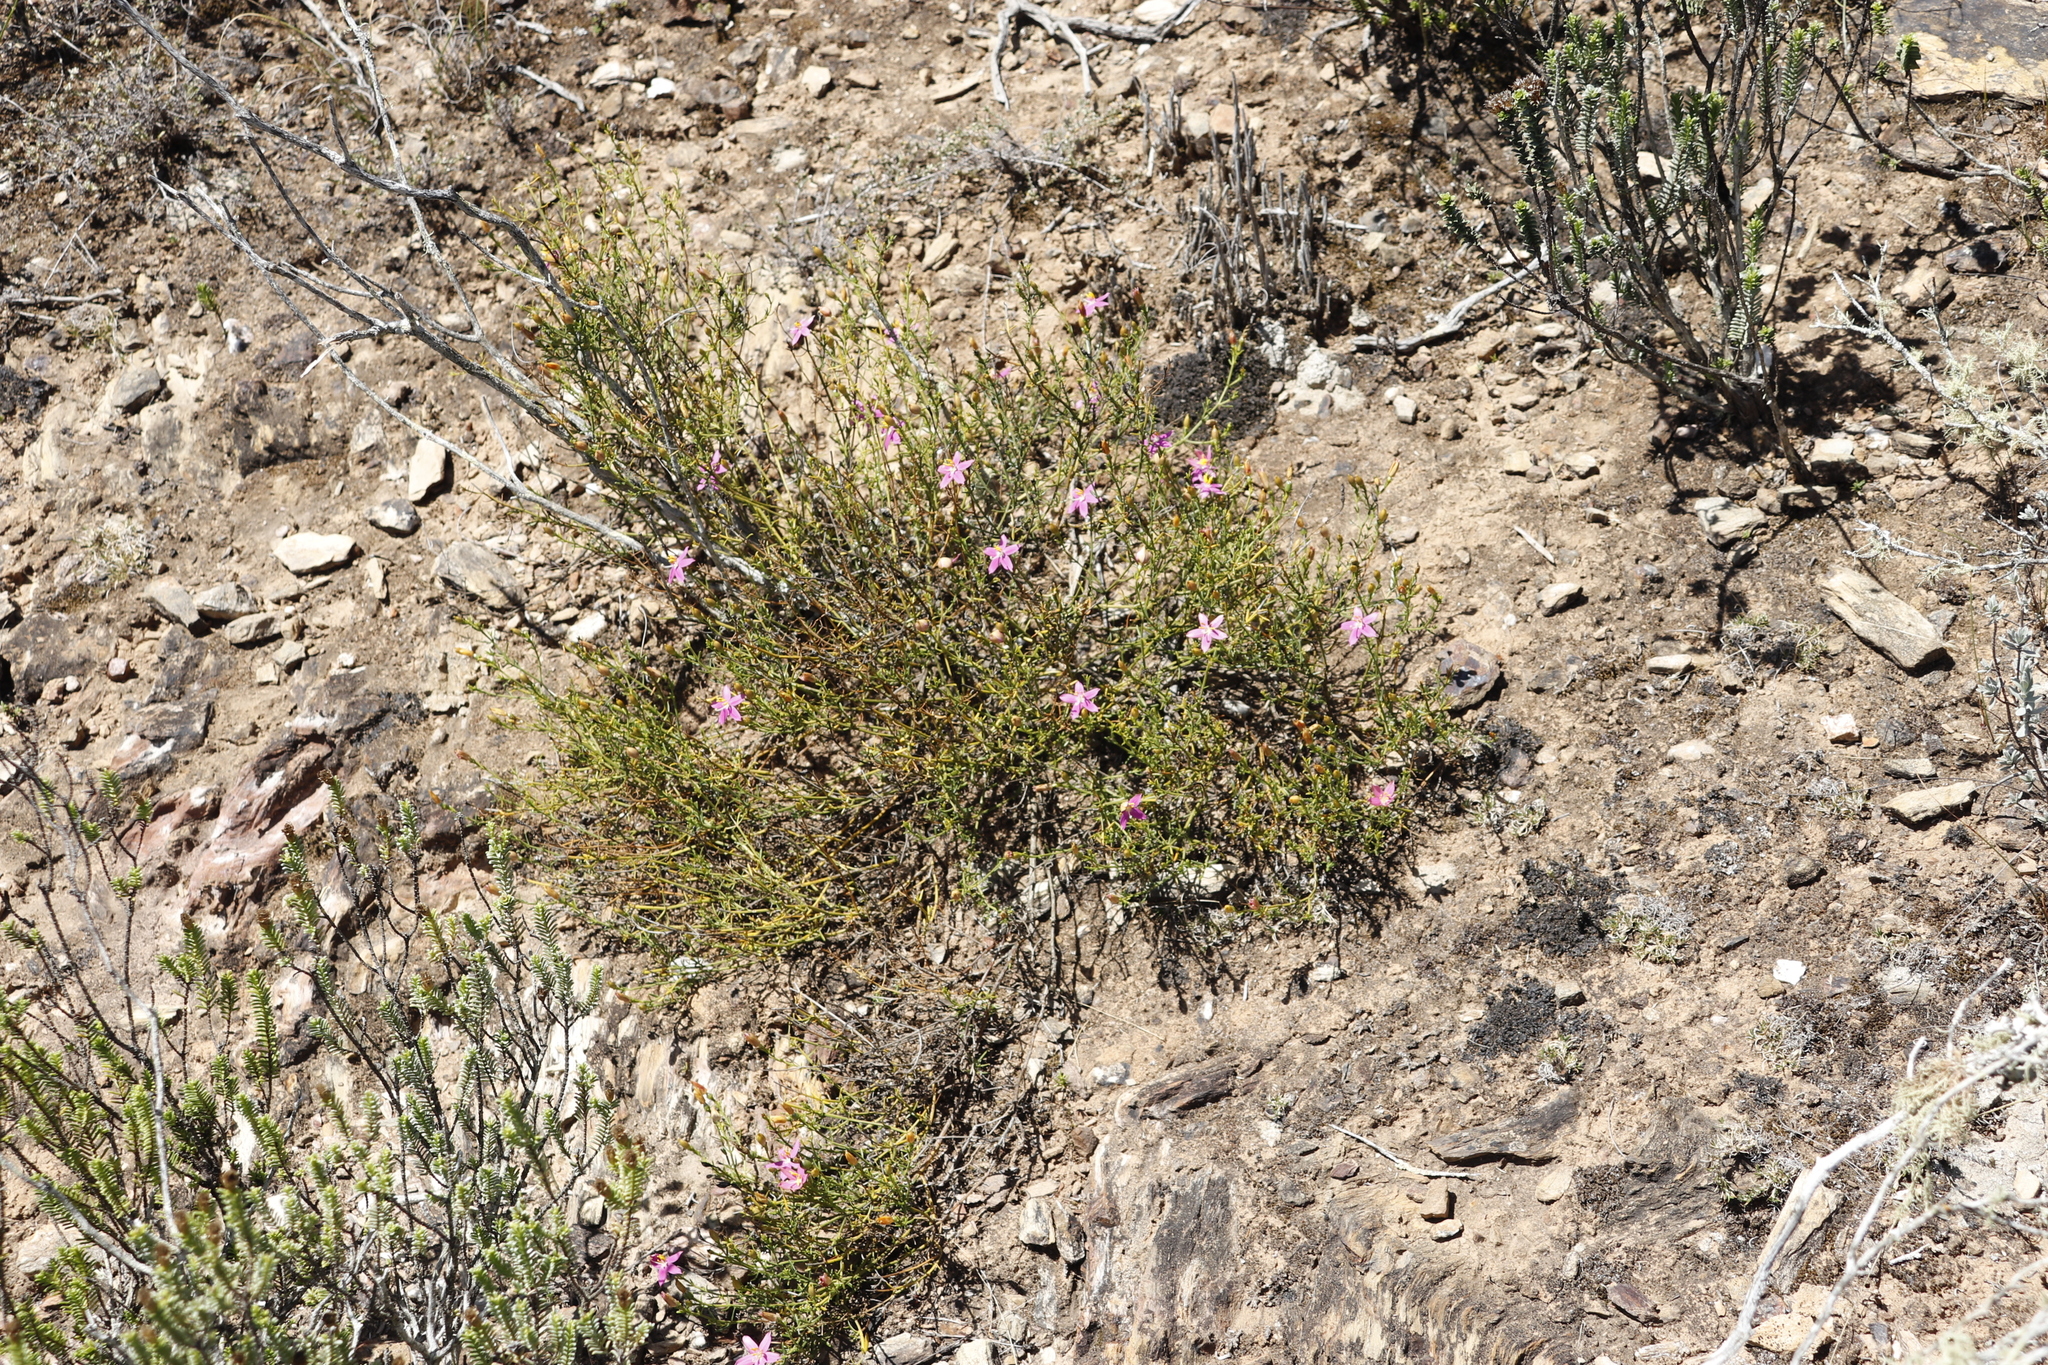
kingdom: Plantae
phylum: Tracheophyta
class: Magnoliopsida
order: Gentianales
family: Gentianaceae
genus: Chironia
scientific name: Chironia baccifera
